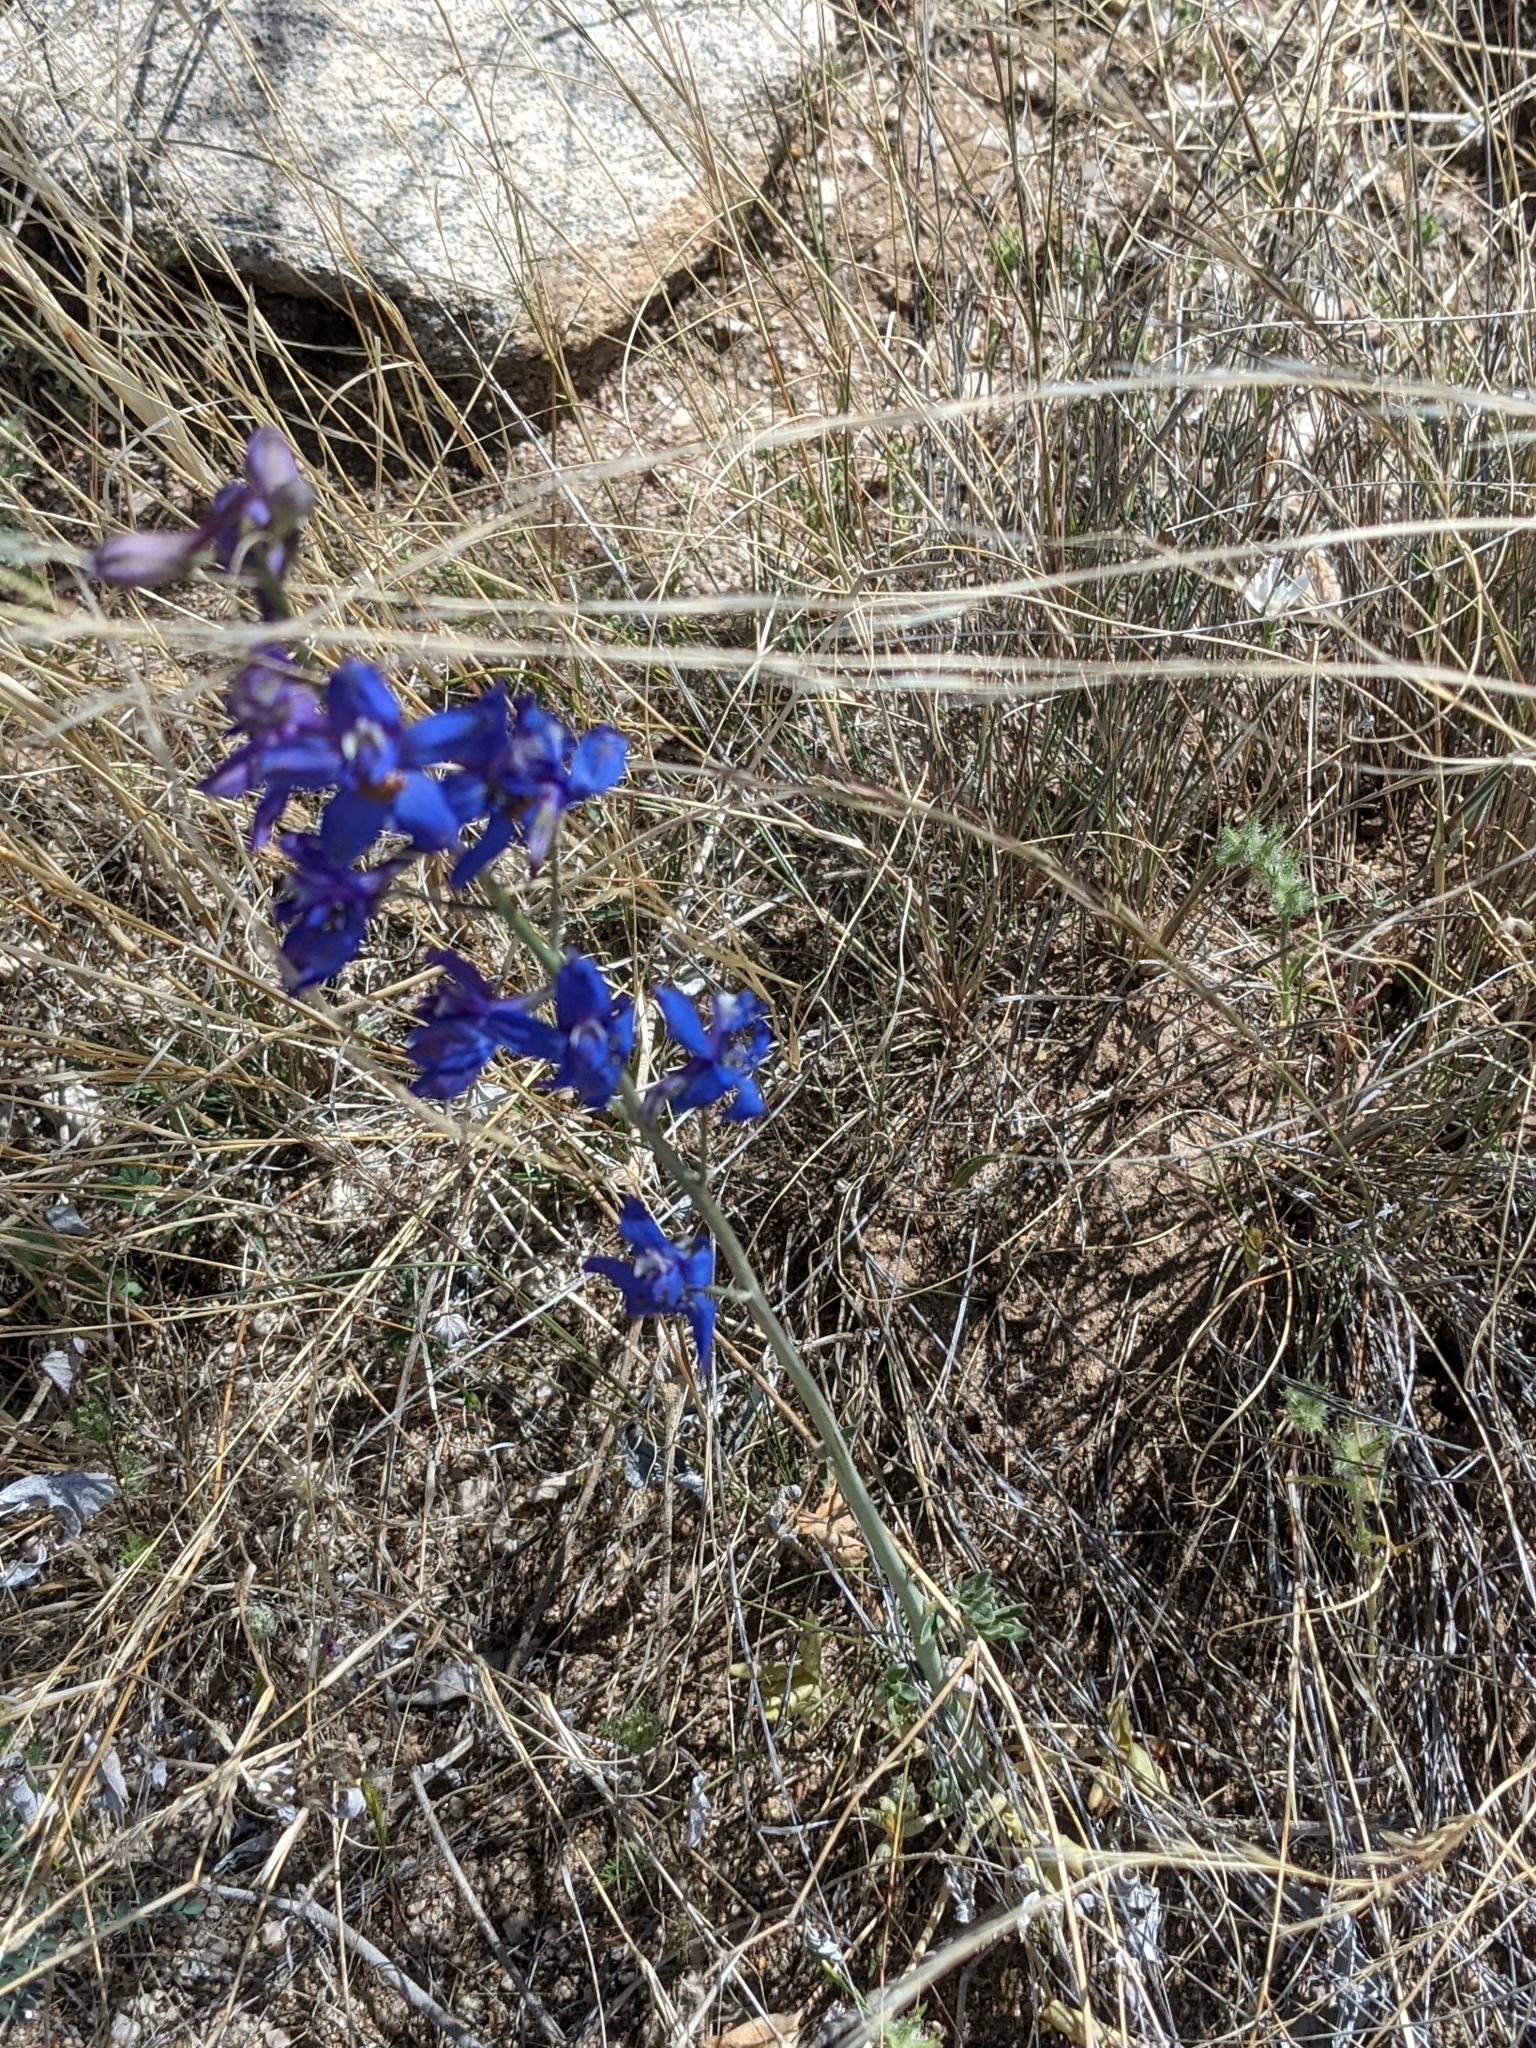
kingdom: Plantae
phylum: Tracheophyta
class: Magnoliopsida
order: Ranunculales
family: Ranunculaceae
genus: Delphinium
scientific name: Delphinium scaposum
